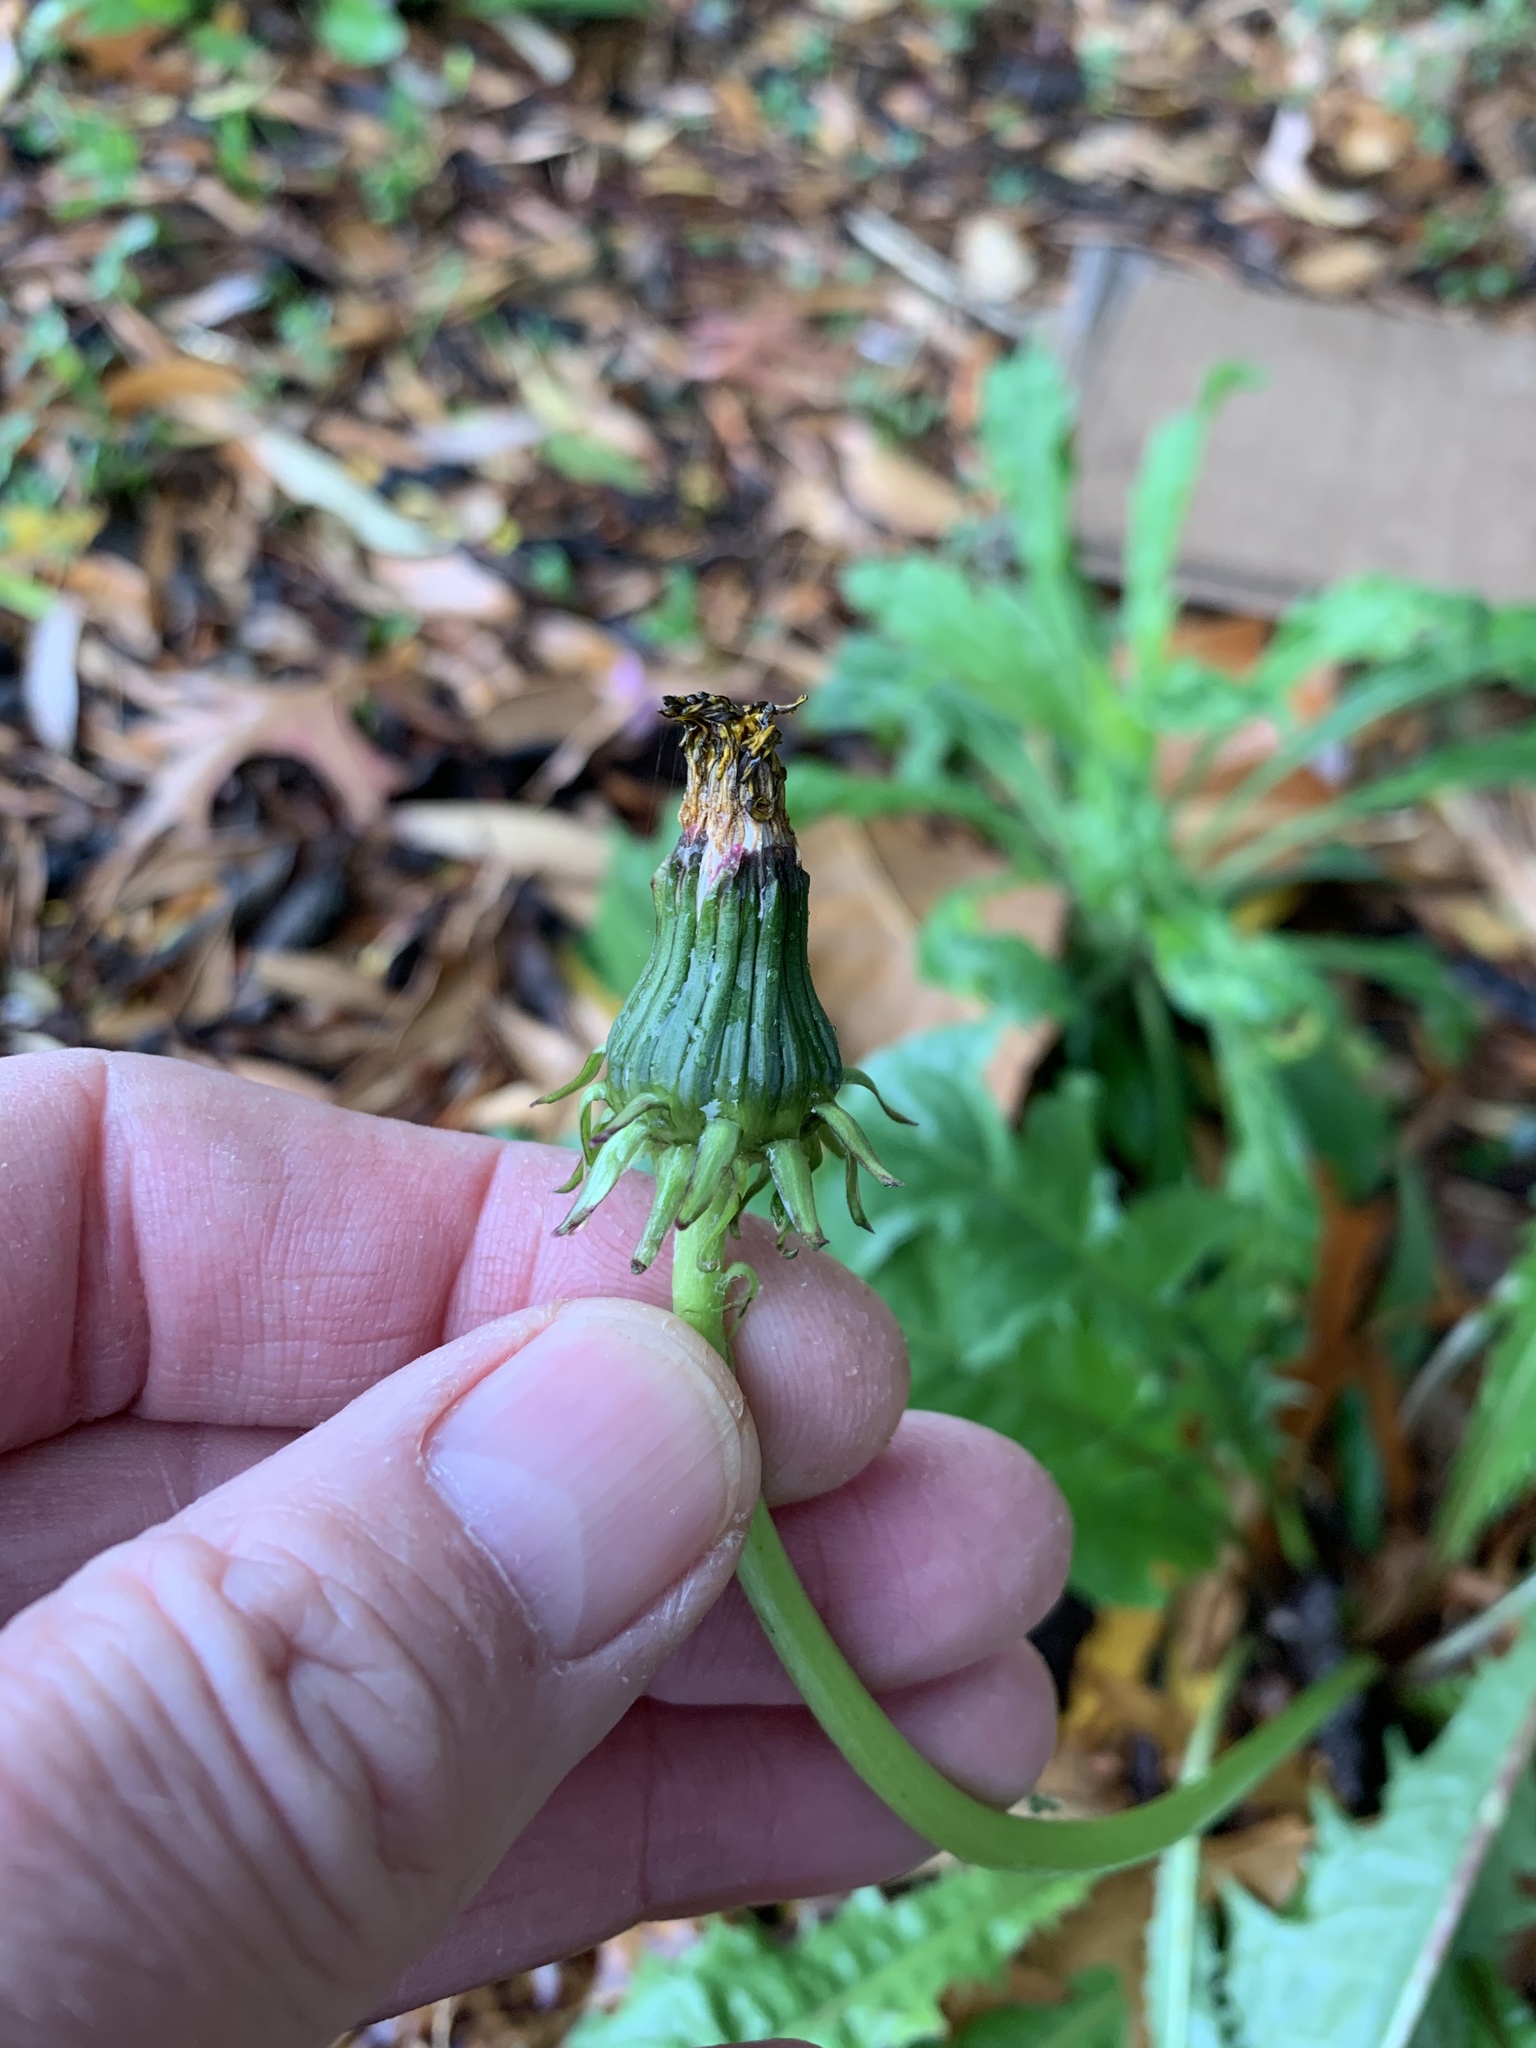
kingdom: Plantae
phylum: Tracheophyta
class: Magnoliopsida
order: Asterales
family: Asteraceae
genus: Taraxacum
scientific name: Taraxacum officinale
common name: Common dandelion
